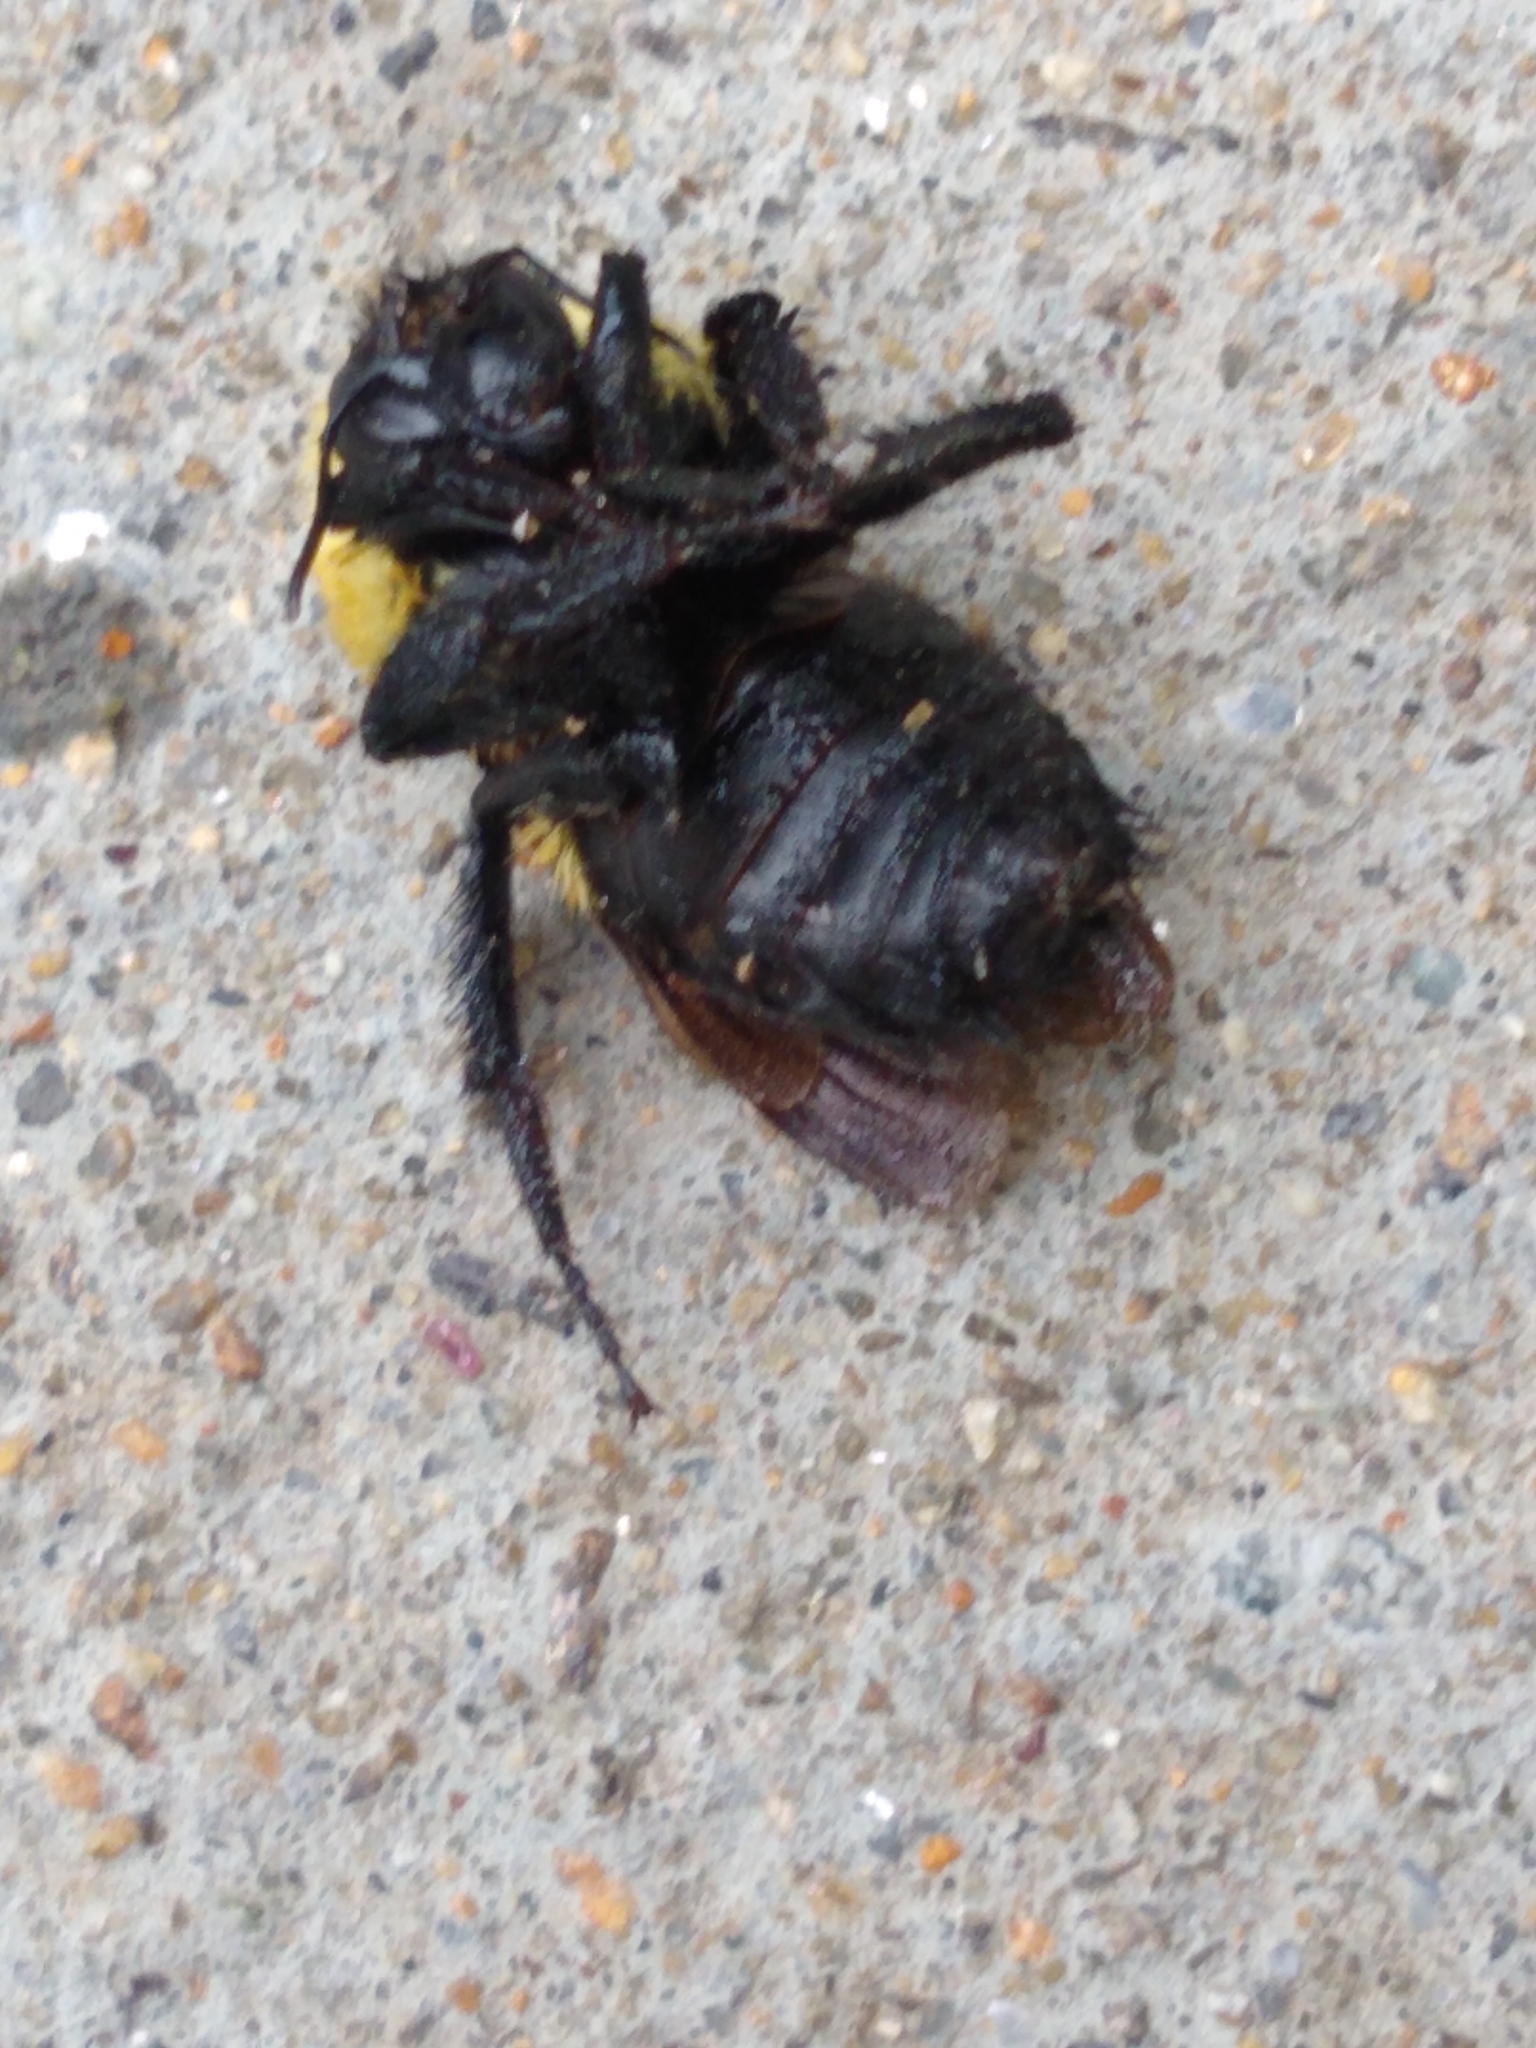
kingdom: Animalia
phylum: Arthropoda
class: Insecta
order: Hymenoptera
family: Apidae
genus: Bombus
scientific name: Bombus griseocollis
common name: Brown-belted bumble bee
